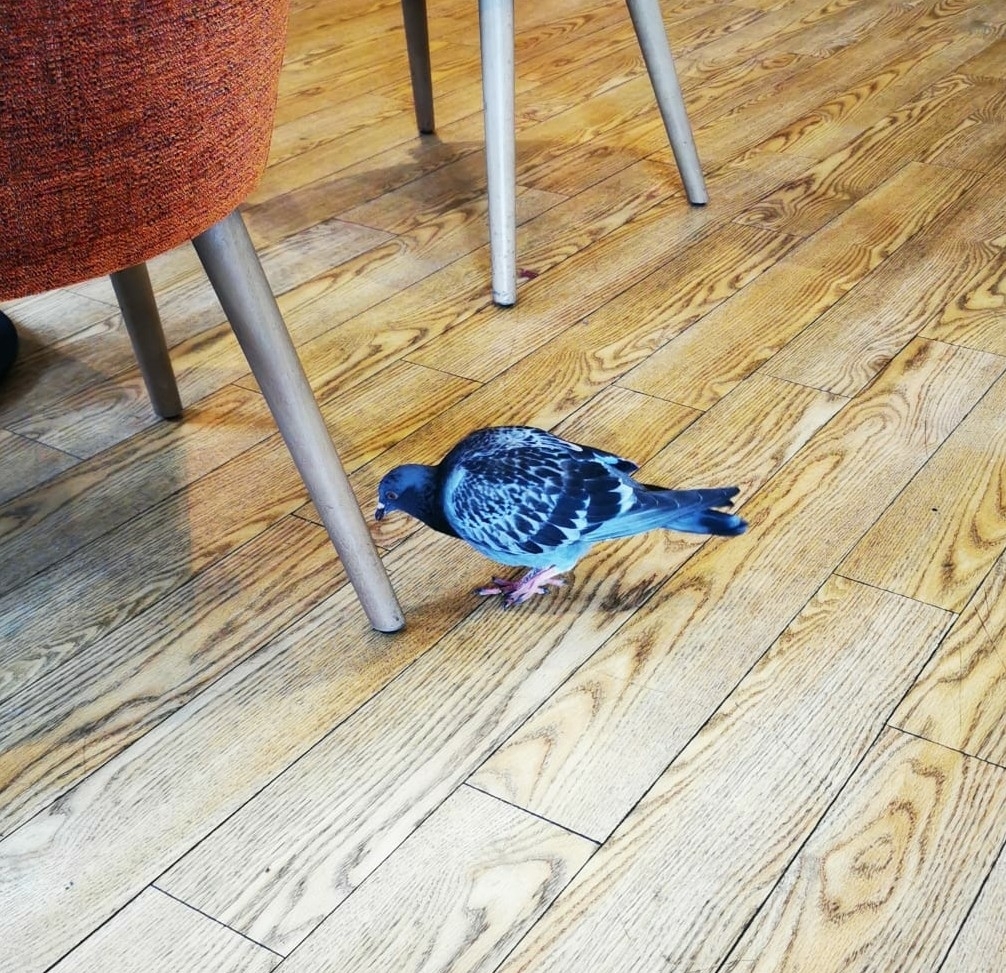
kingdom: Animalia
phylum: Chordata
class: Aves
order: Columbiformes
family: Columbidae
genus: Columba
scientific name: Columba livia
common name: Rock pigeon
